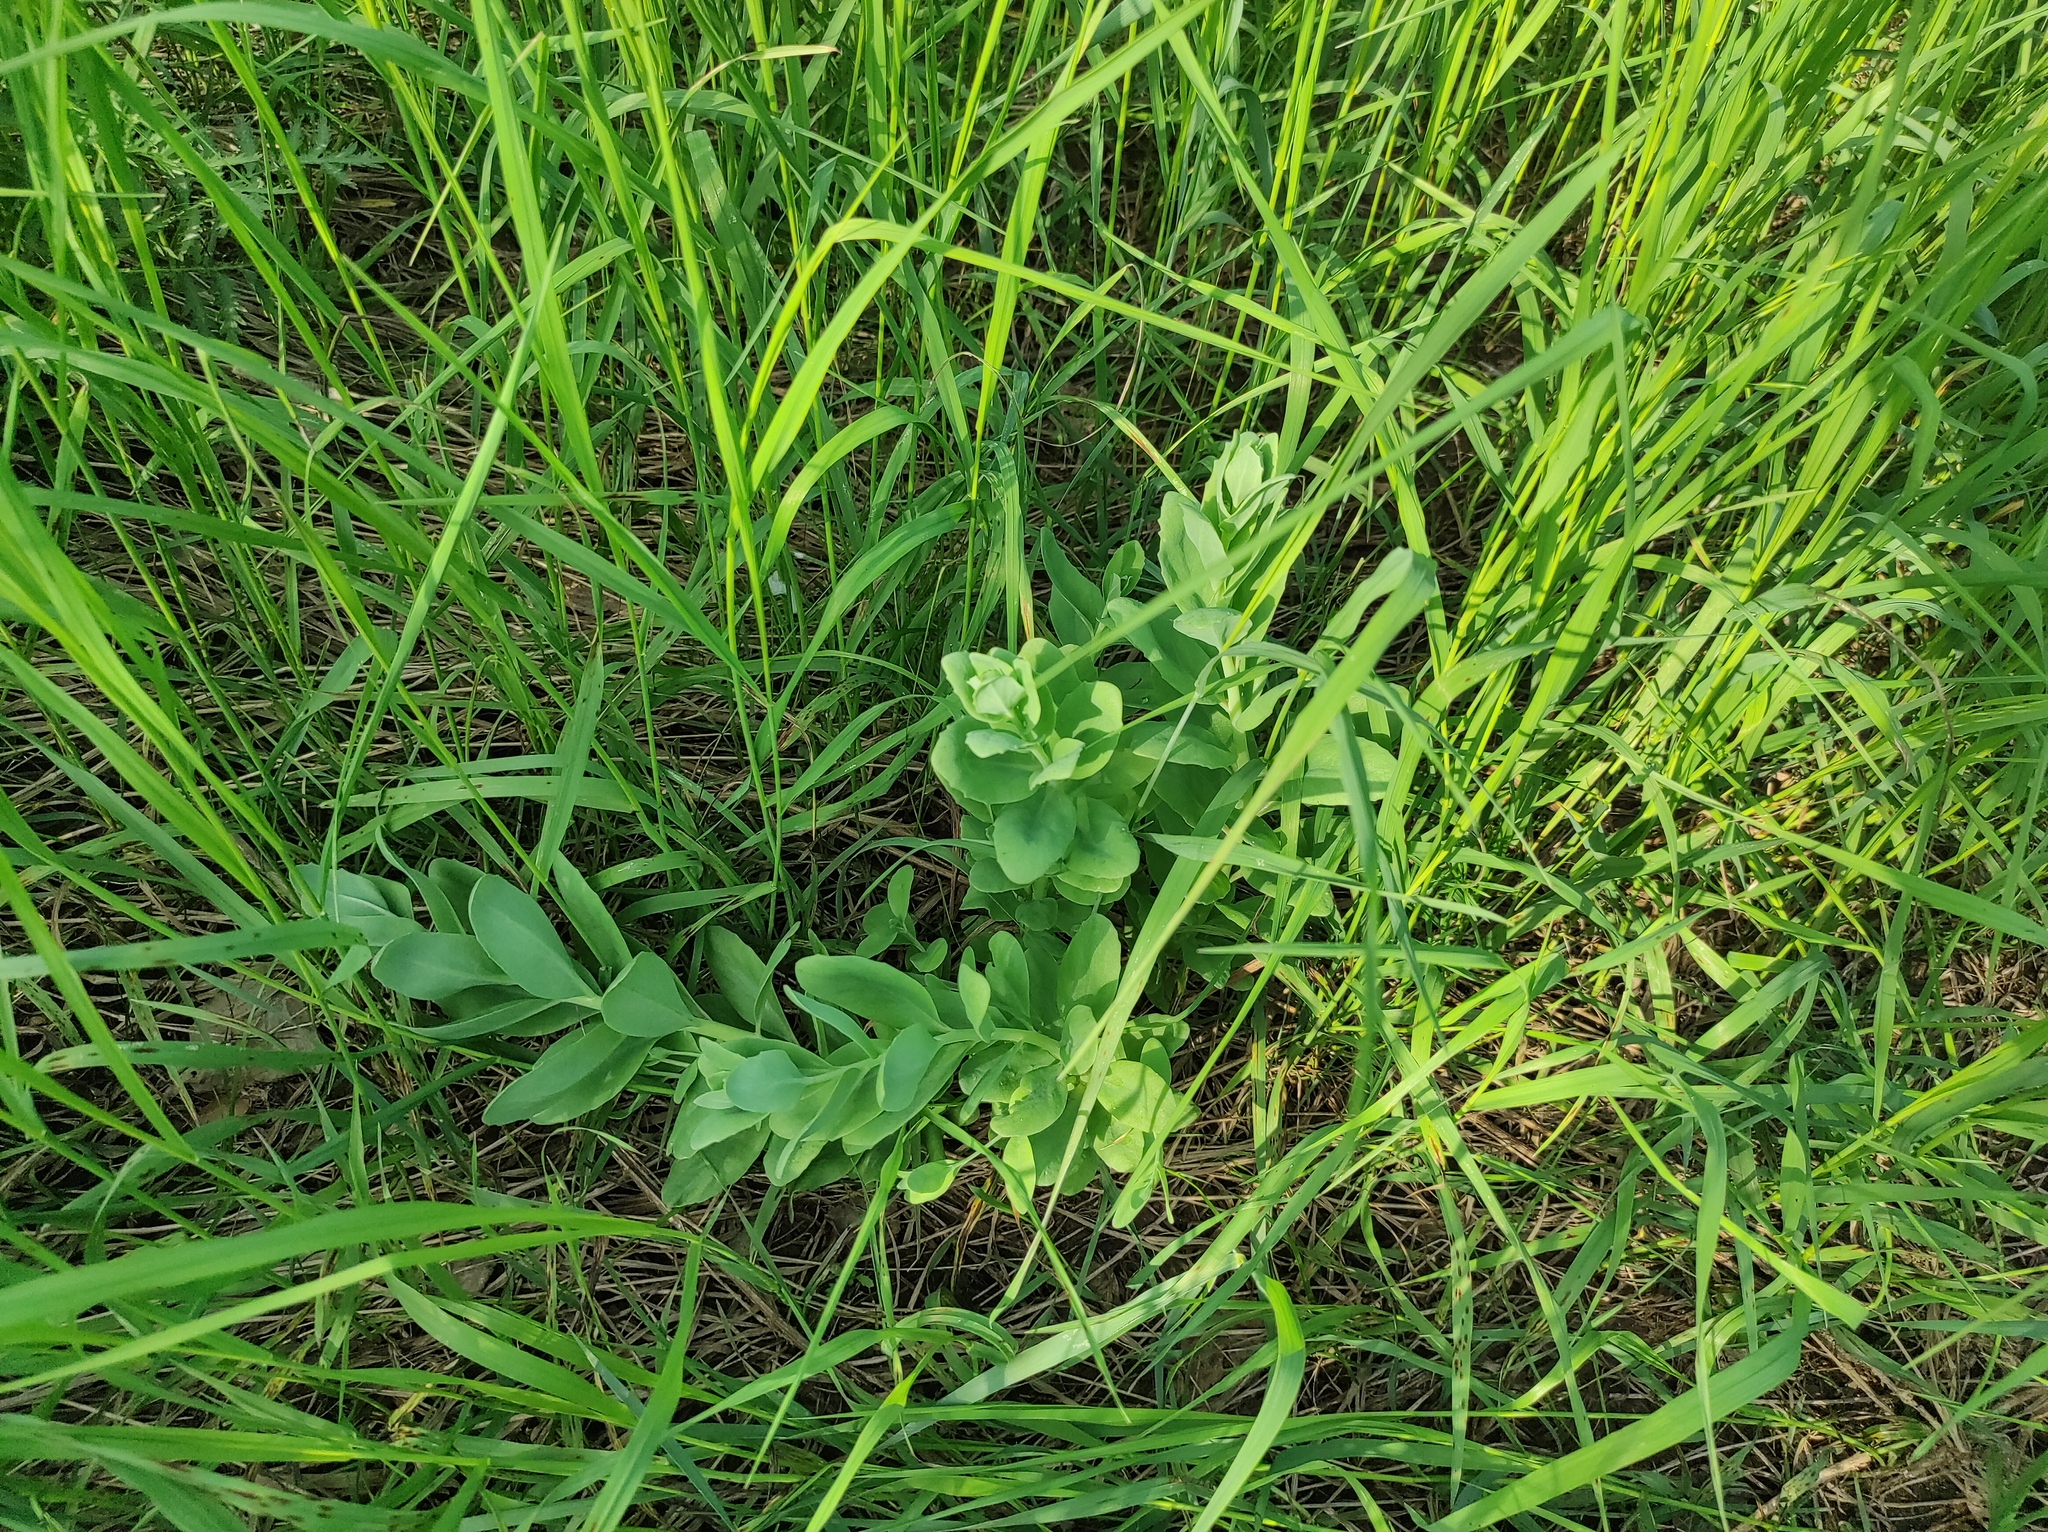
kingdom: Plantae
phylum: Tracheophyta
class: Magnoliopsida
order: Saxifragales
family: Crassulaceae
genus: Hylotelephium
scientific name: Hylotelephium telephium
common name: Live-forever
